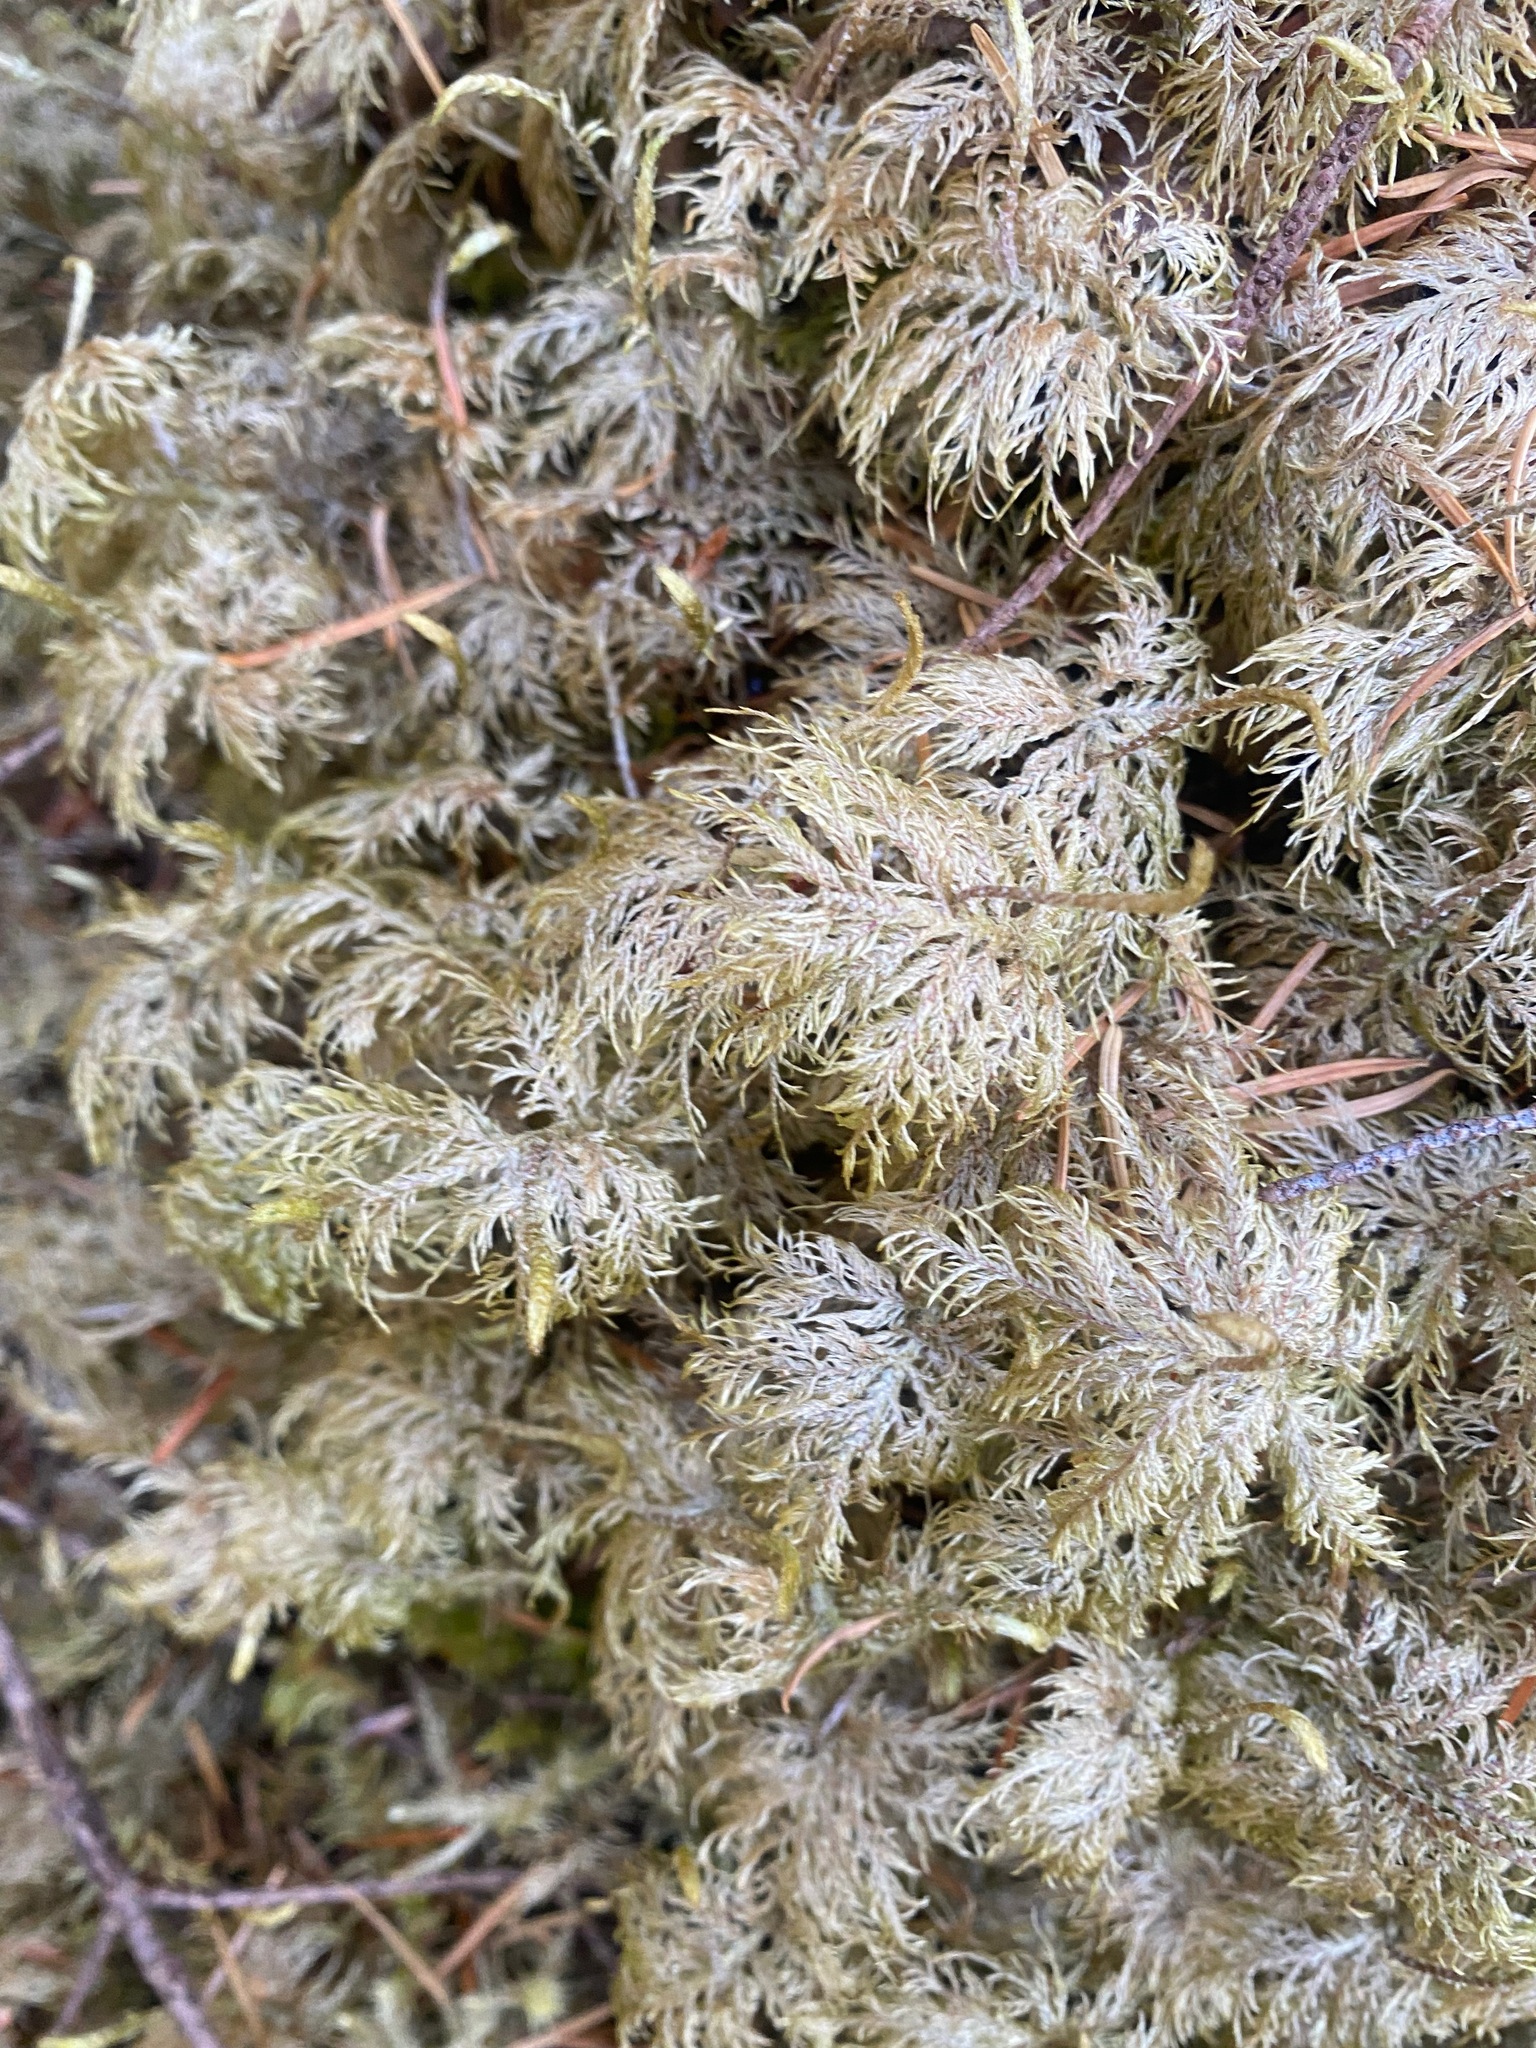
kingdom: Plantae
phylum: Bryophyta
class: Bryopsida
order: Hypnales
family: Hylocomiaceae
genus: Hylocomium
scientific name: Hylocomium splendens
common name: Stairstep moss
